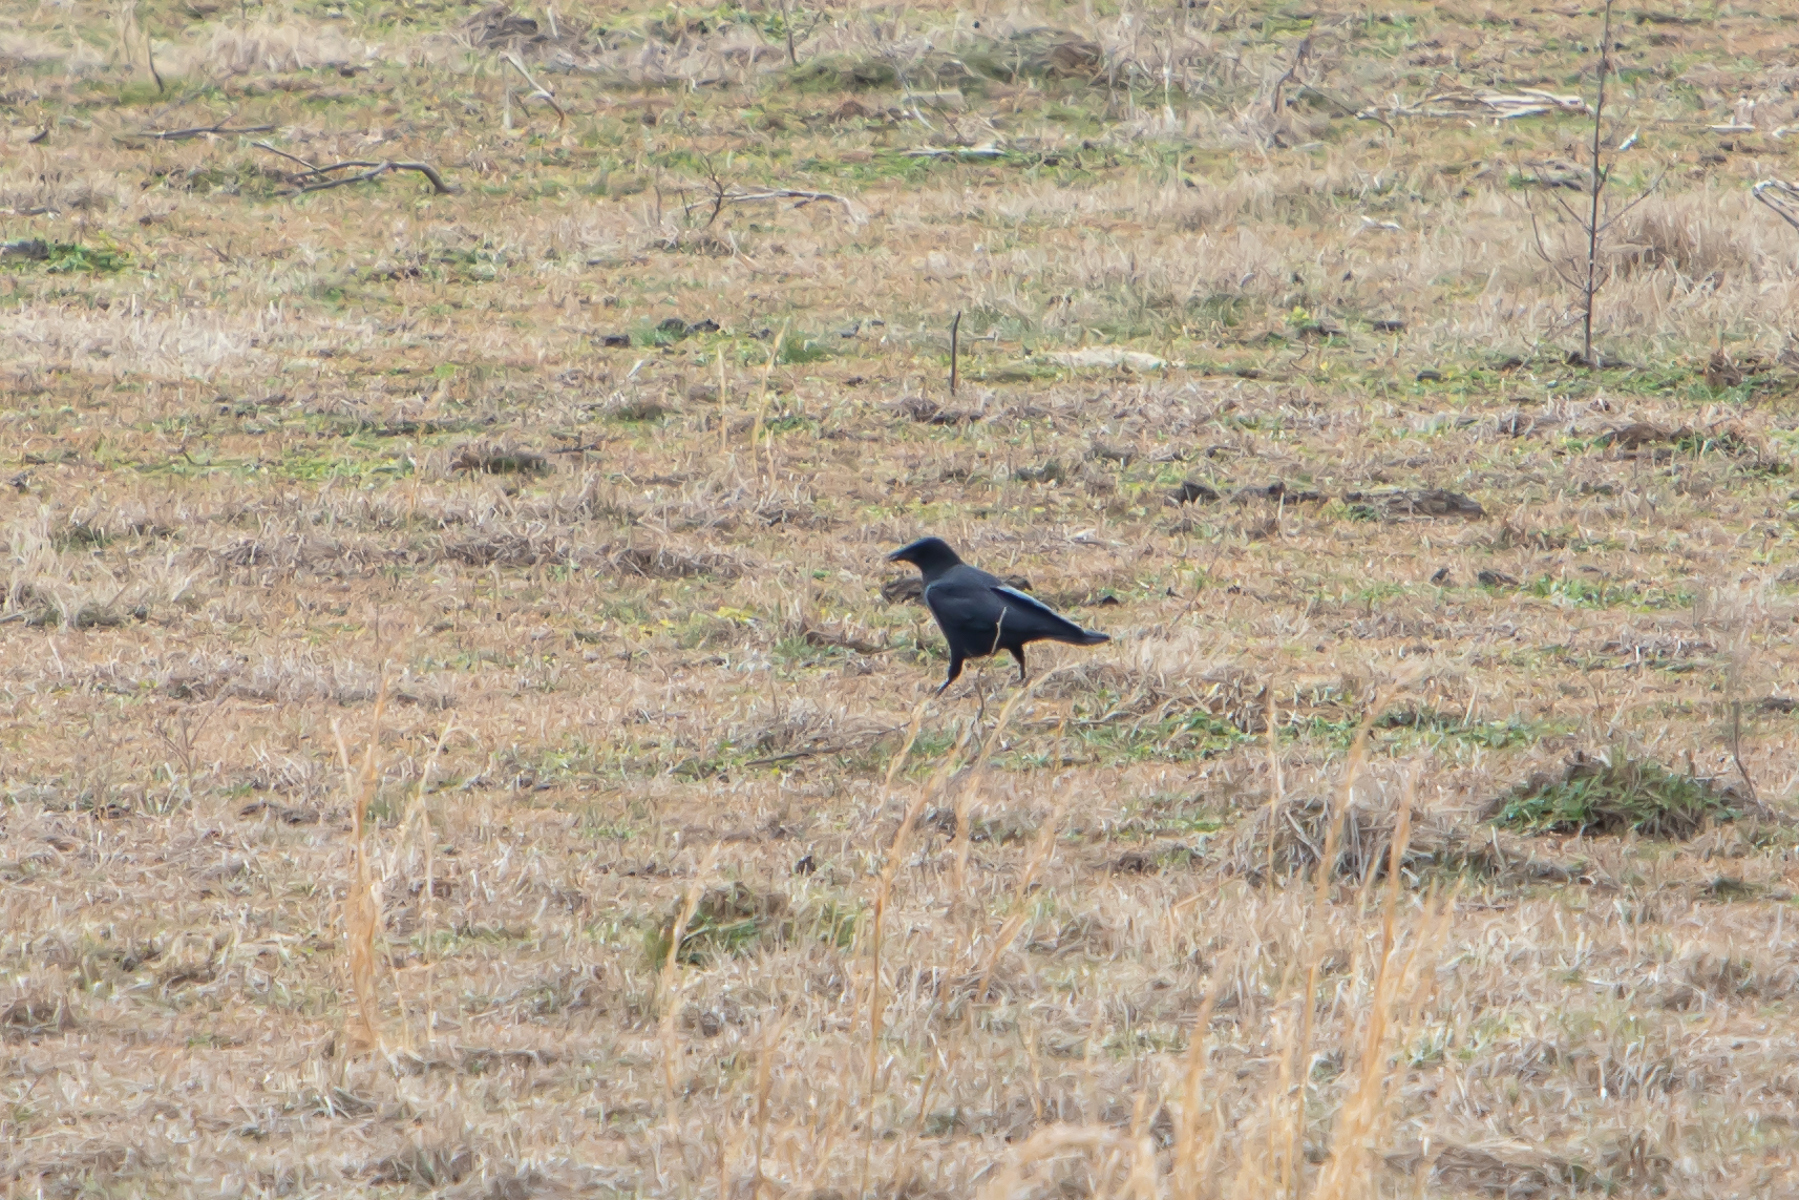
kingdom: Animalia
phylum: Chordata
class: Aves
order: Passeriformes
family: Corvidae
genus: Corvus
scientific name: Corvus brachyrhynchos
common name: American crow
